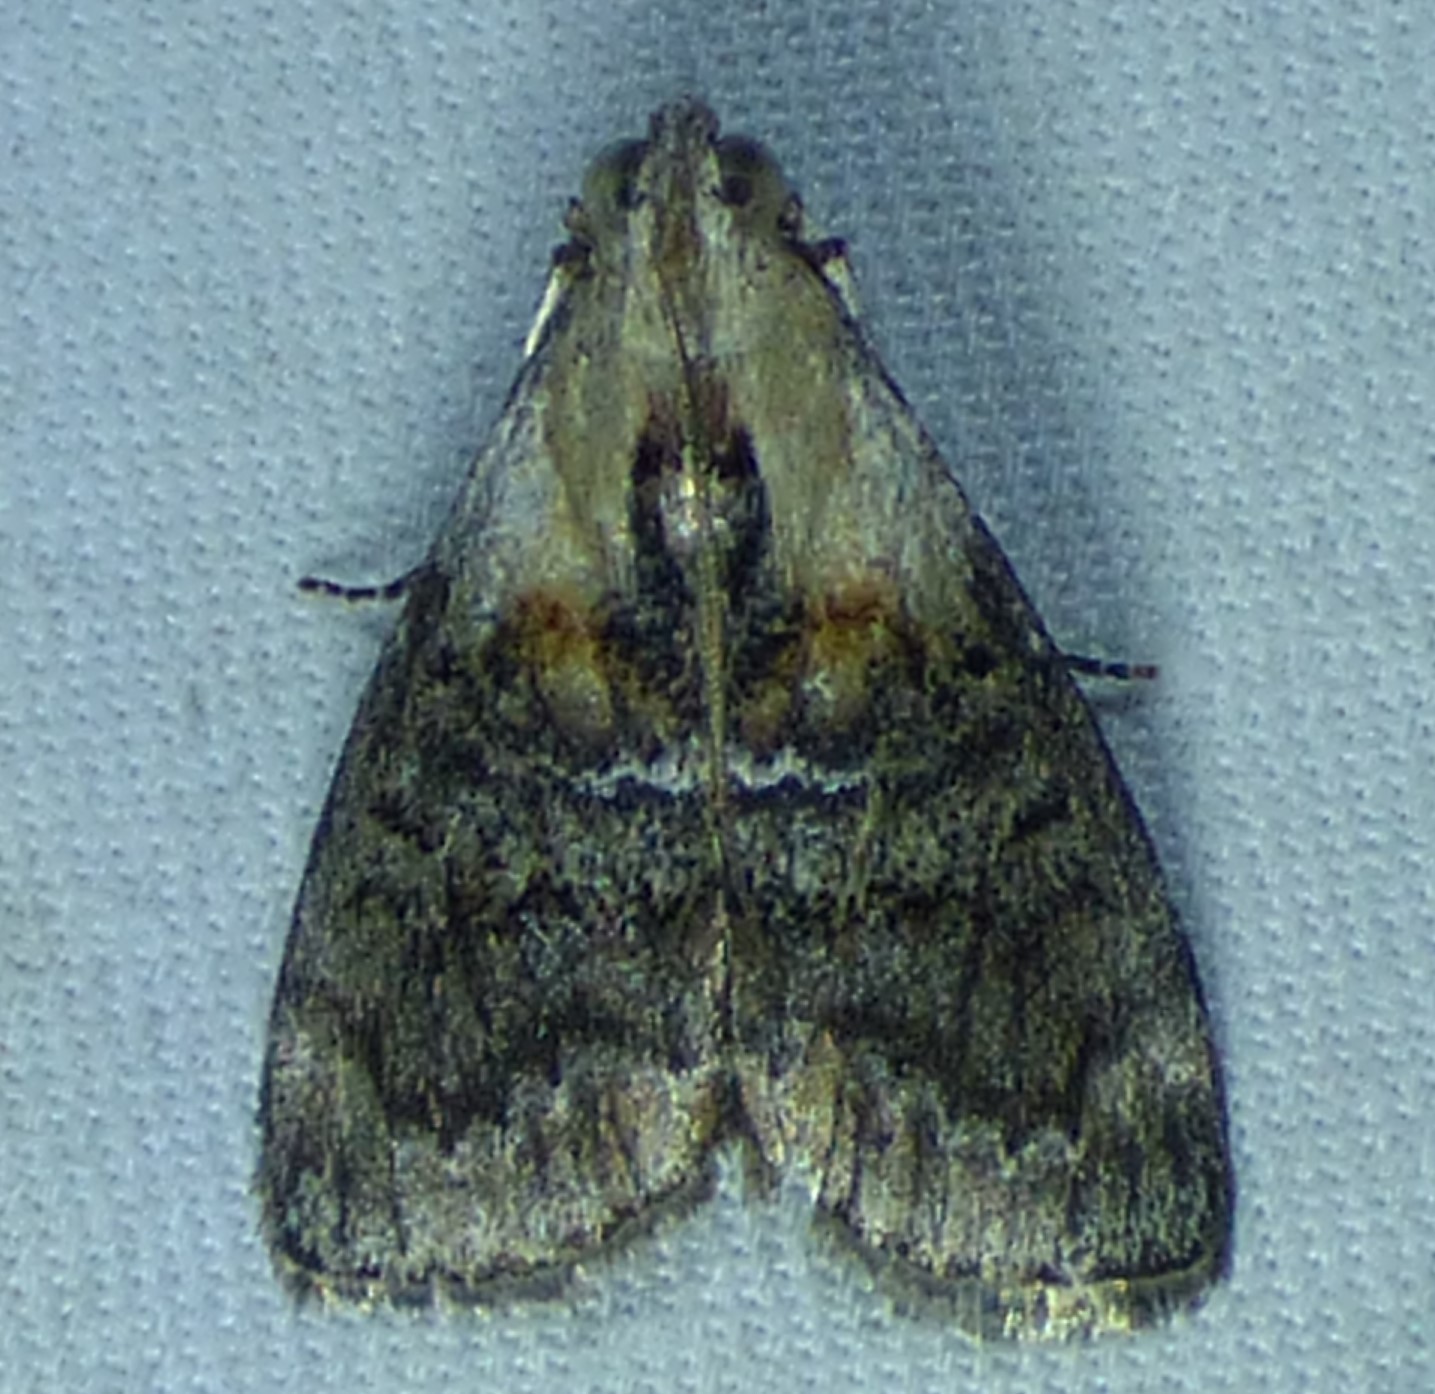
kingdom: Animalia
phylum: Arthropoda
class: Insecta
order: Lepidoptera
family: Pyralidae
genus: Pococera
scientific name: Pococera expandens
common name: Striped oak webworm moth
